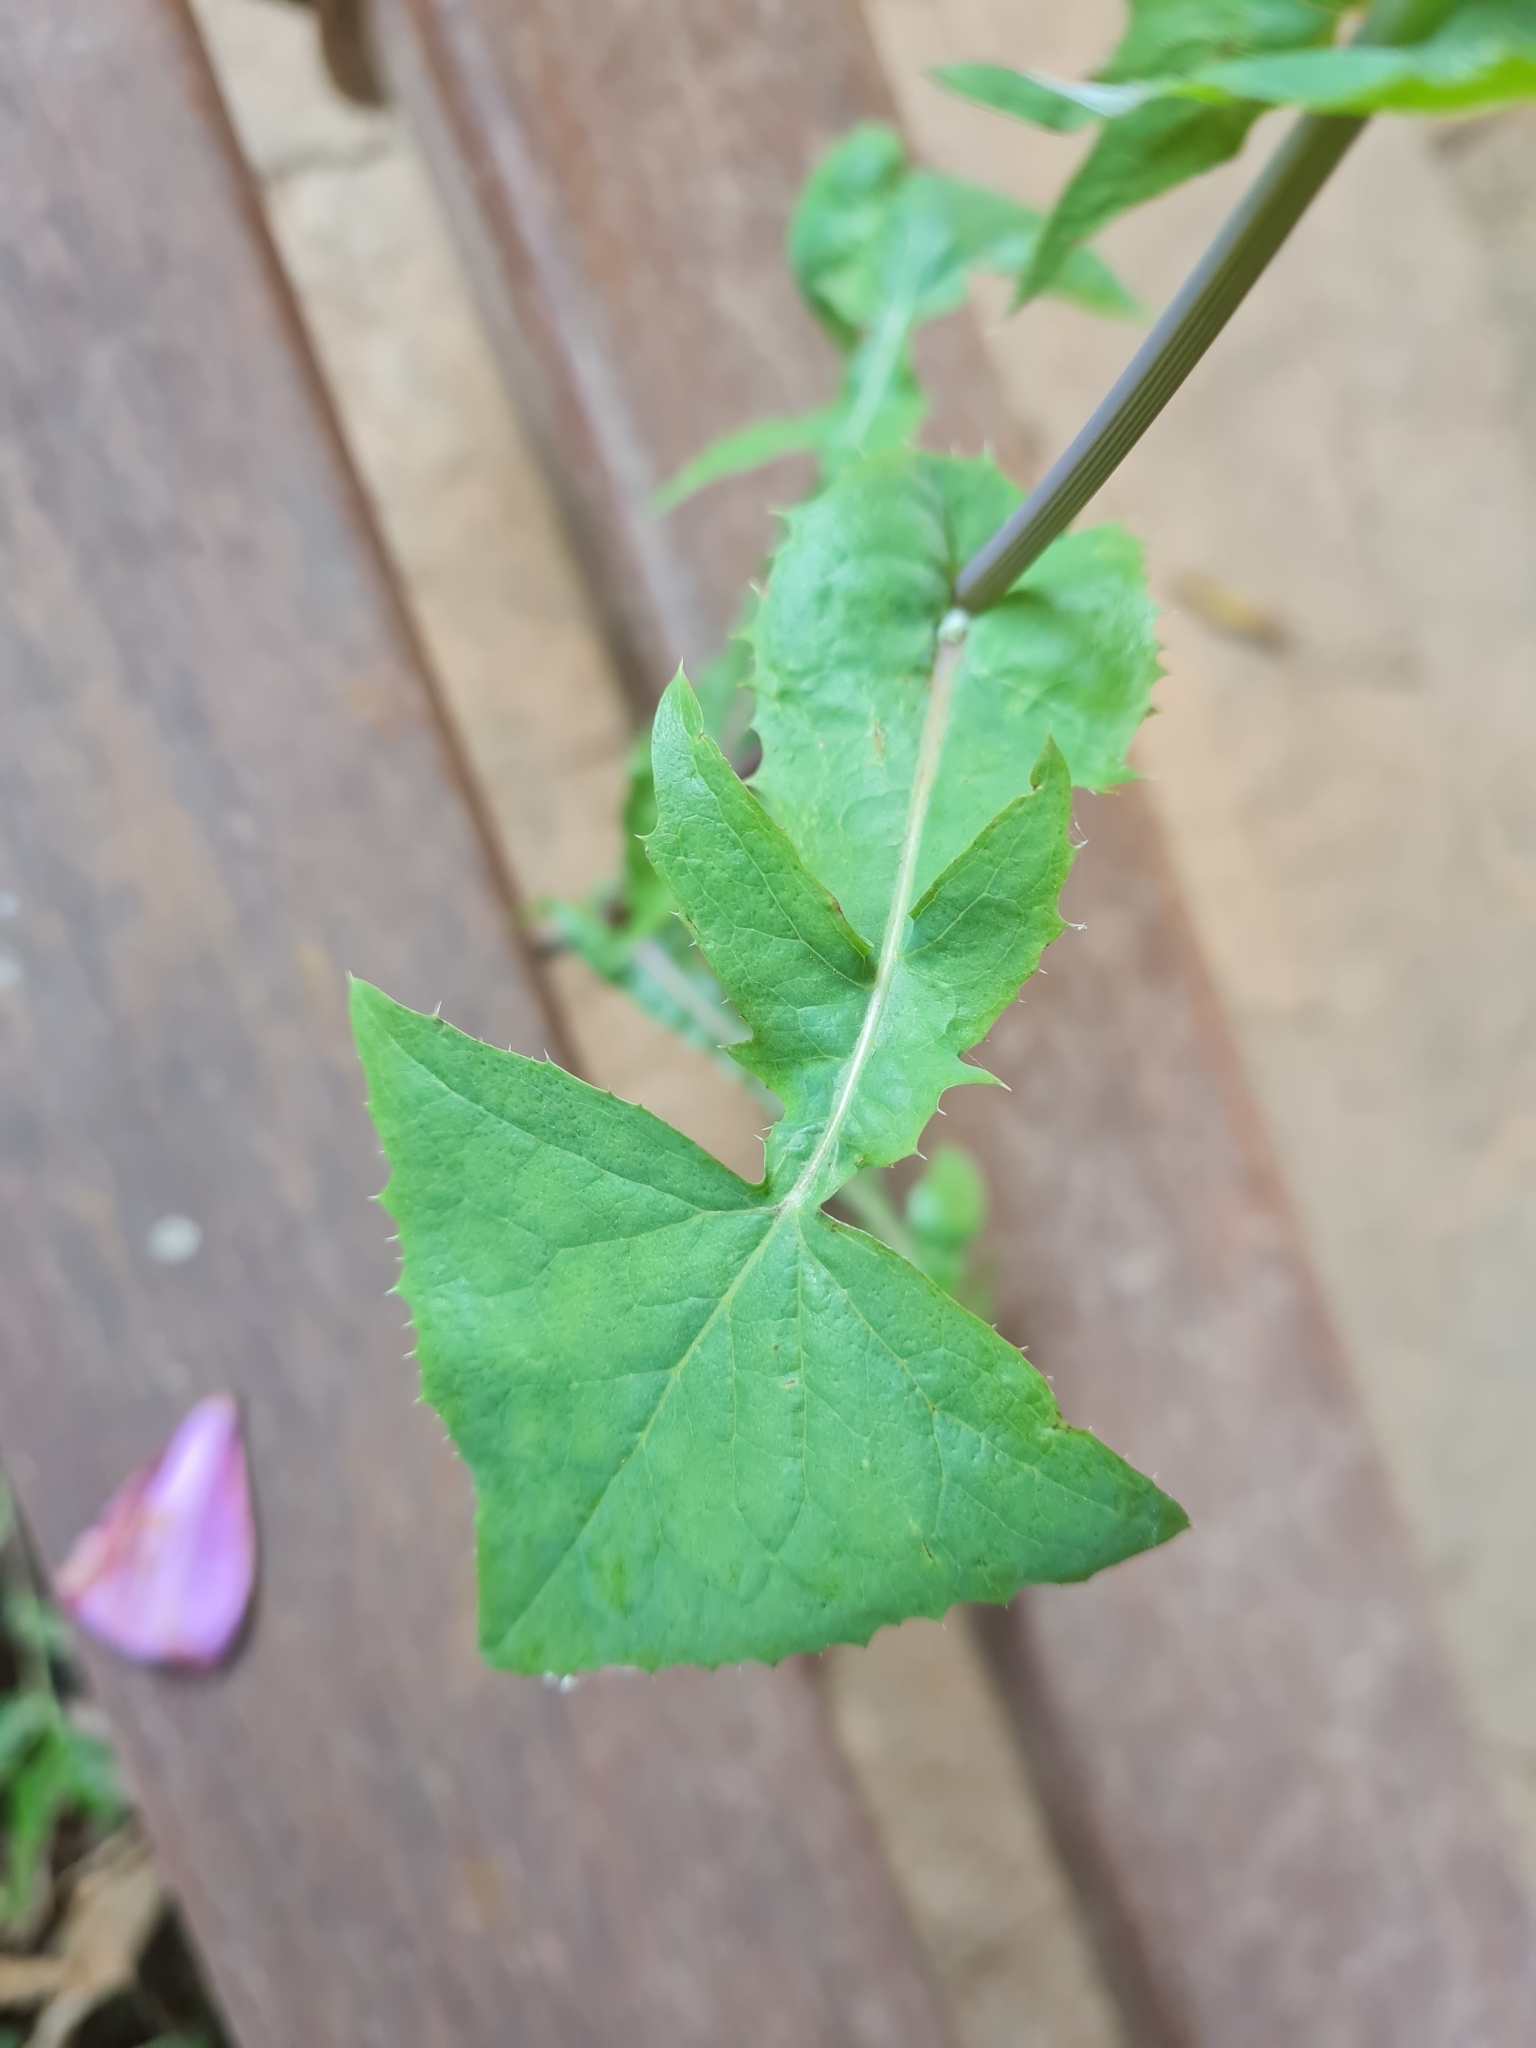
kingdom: Plantae
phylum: Tracheophyta
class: Magnoliopsida
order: Asterales
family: Asteraceae
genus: Sonchus
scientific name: Sonchus oleraceus
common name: Common sowthistle
